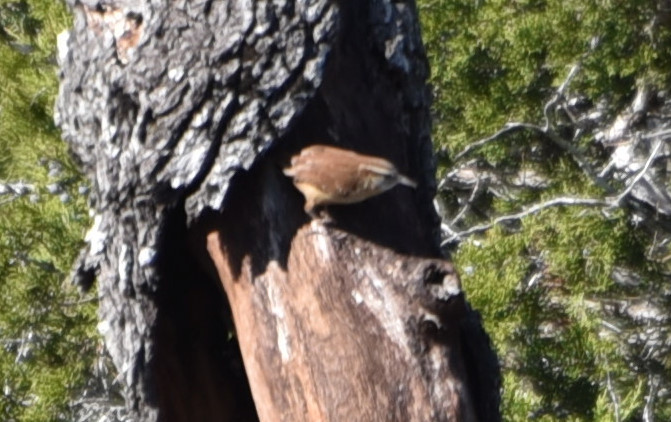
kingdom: Animalia
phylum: Chordata
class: Aves
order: Passeriformes
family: Troglodytidae
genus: Thryothorus
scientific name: Thryothorus ludovicianus
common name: Carolina wren
